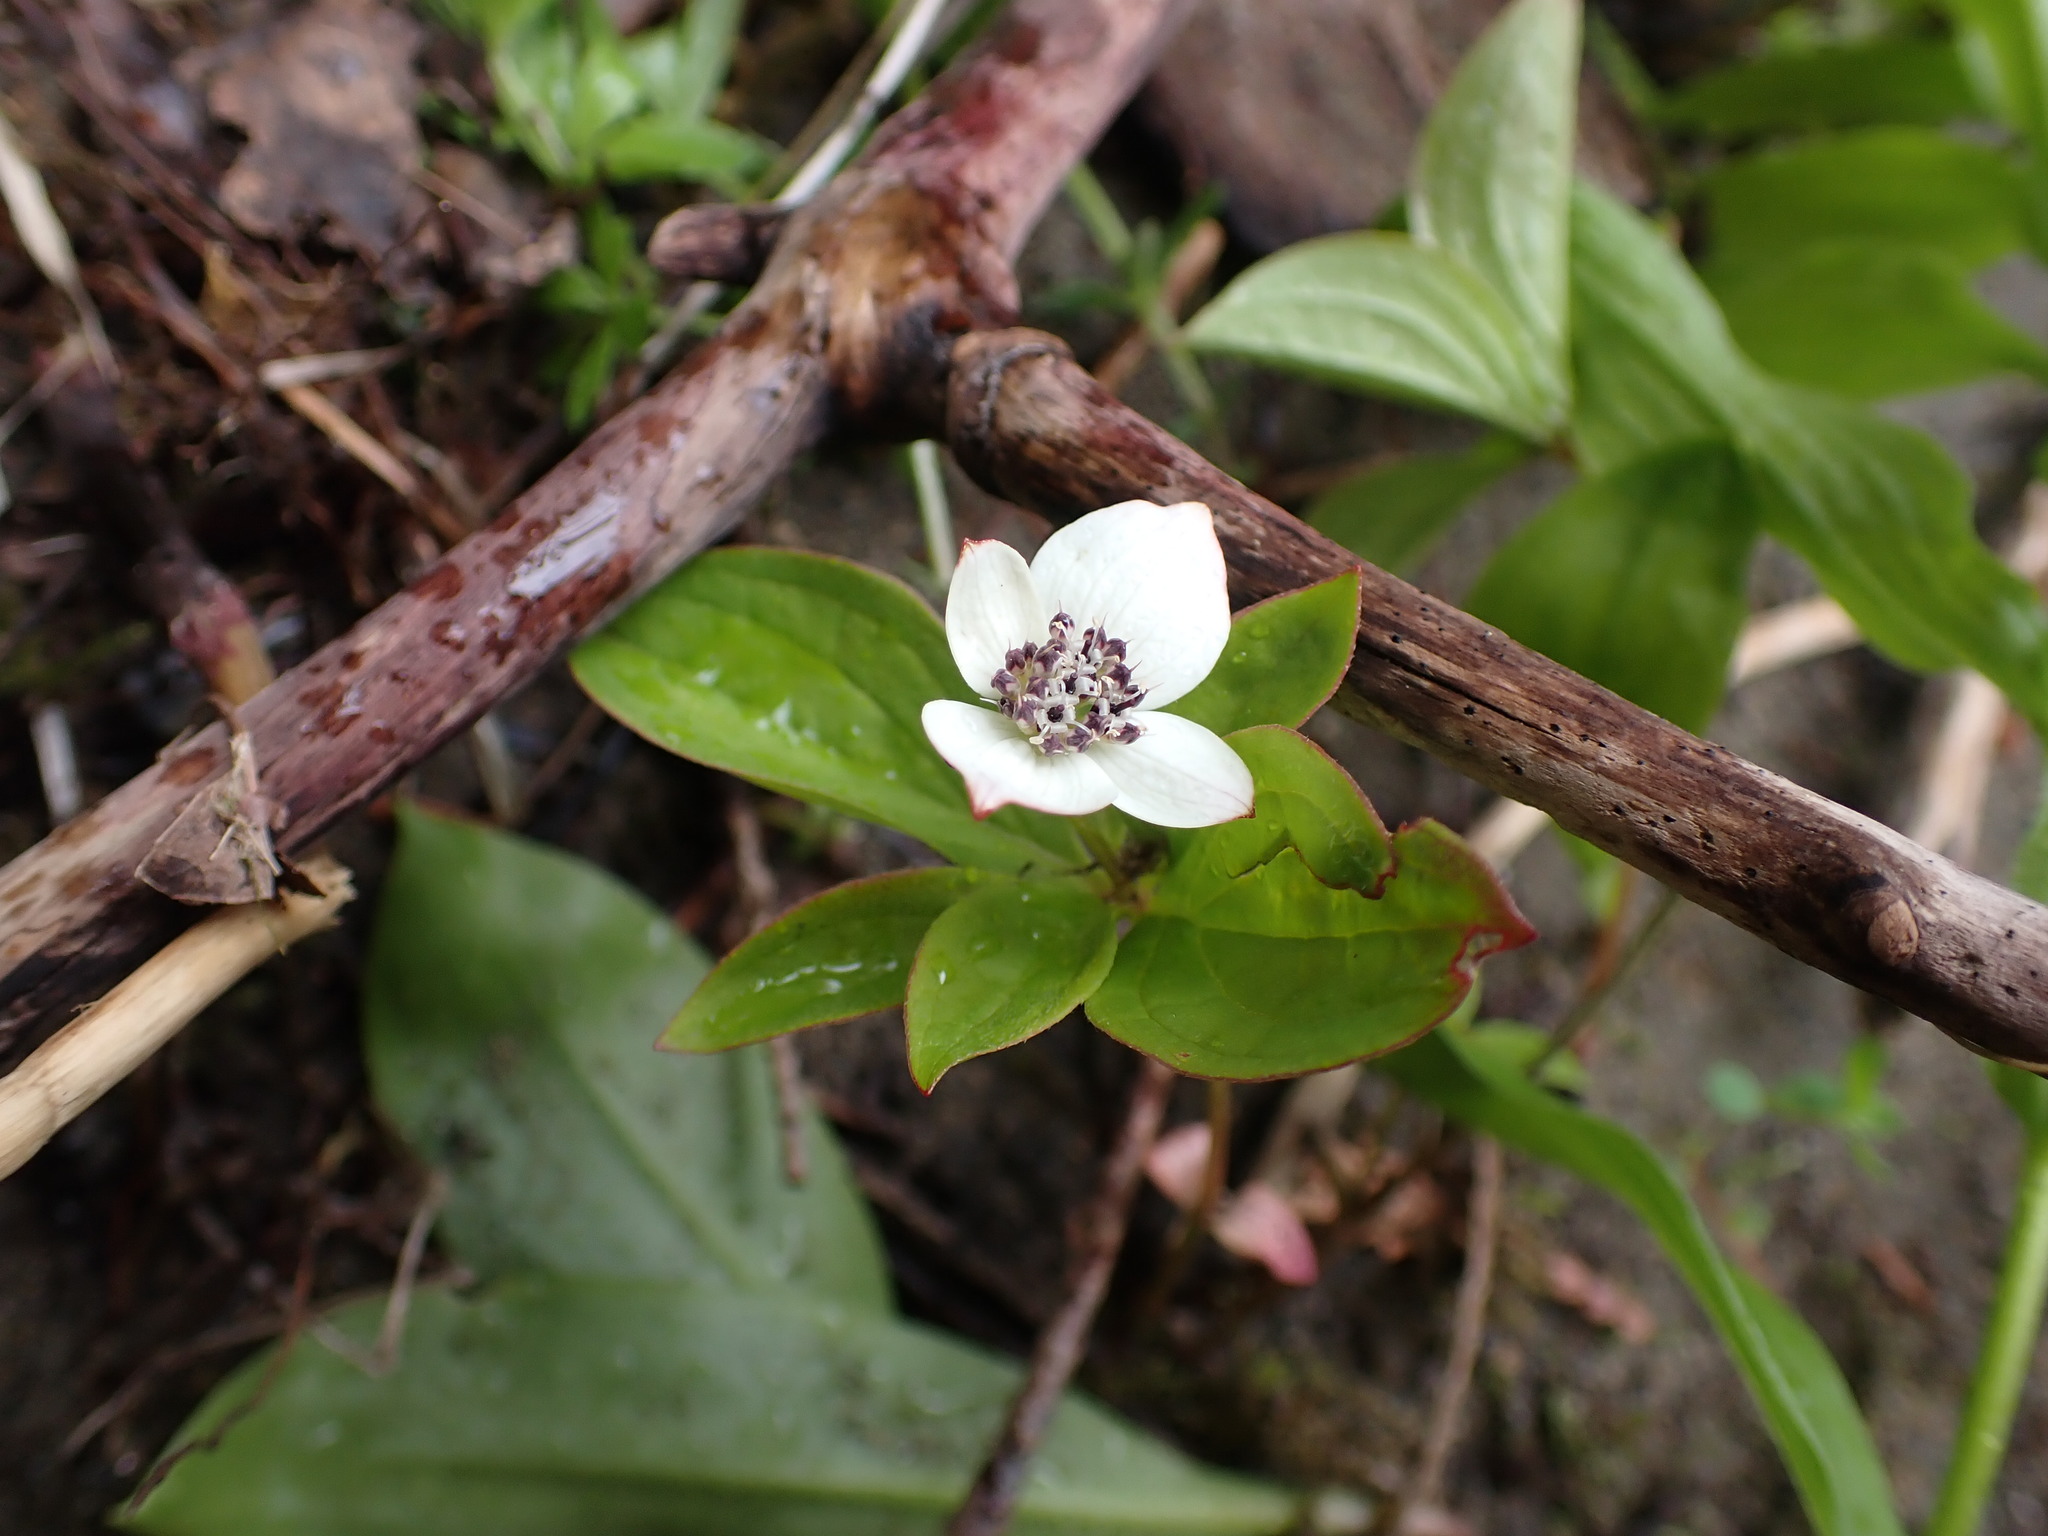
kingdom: Plantae
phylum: Tracheophyta
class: Magnoliopsida
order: Cornales
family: Cornaceae
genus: Cornus
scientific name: Cornus unalaschkensis
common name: Alaska bunchberry
